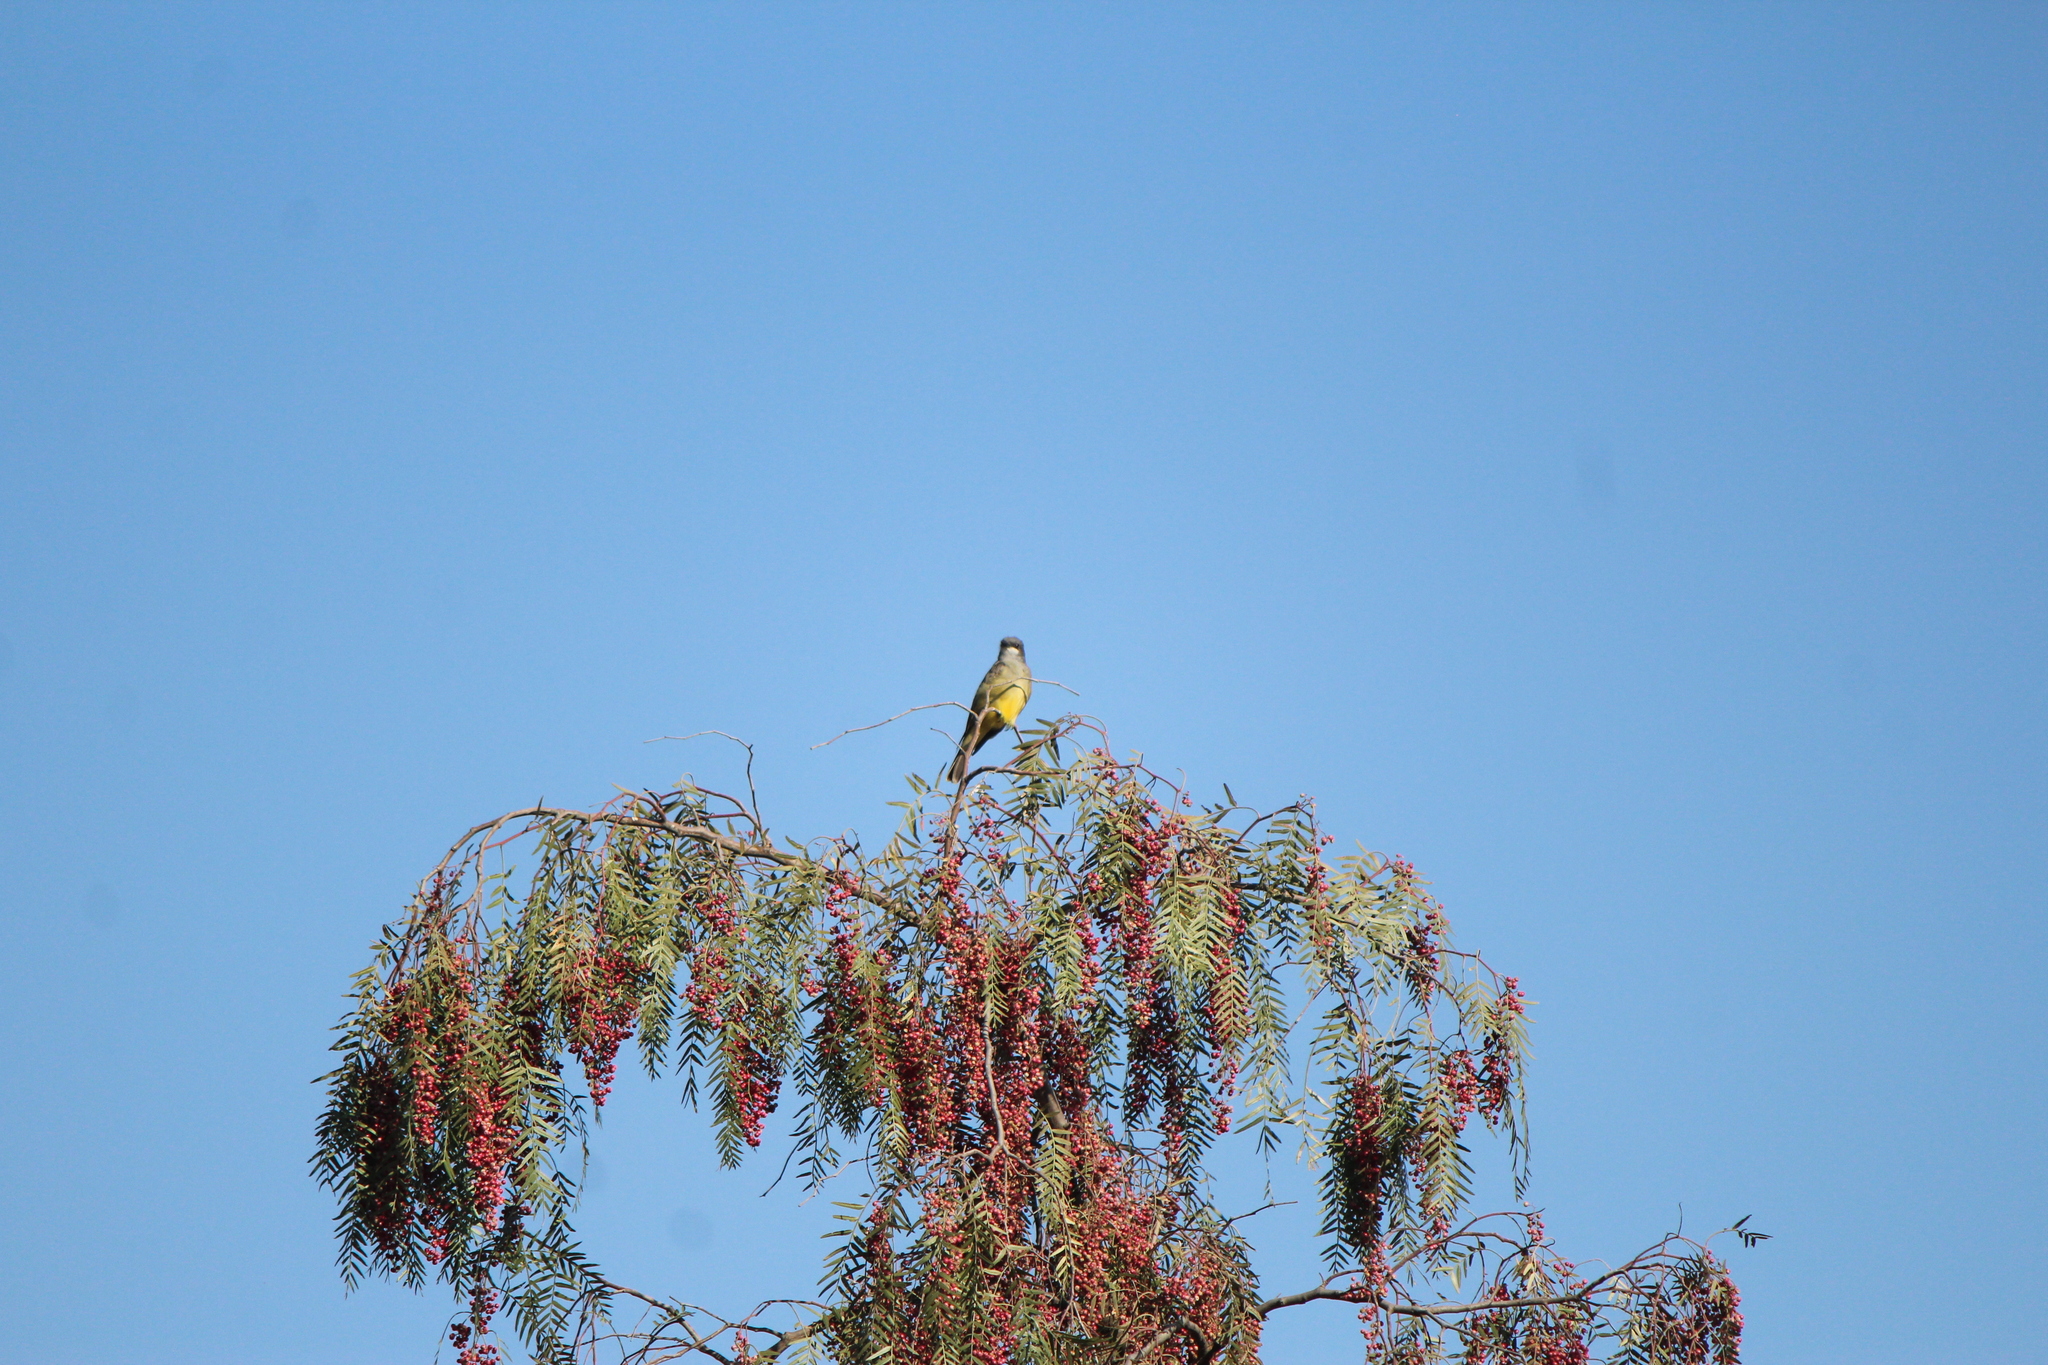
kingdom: Animalia
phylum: Chordata
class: Aves
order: Passeriformes
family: Tyrannidae
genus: Tyrannus
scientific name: Tyrannus vociferans
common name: Cassin's kingbird
